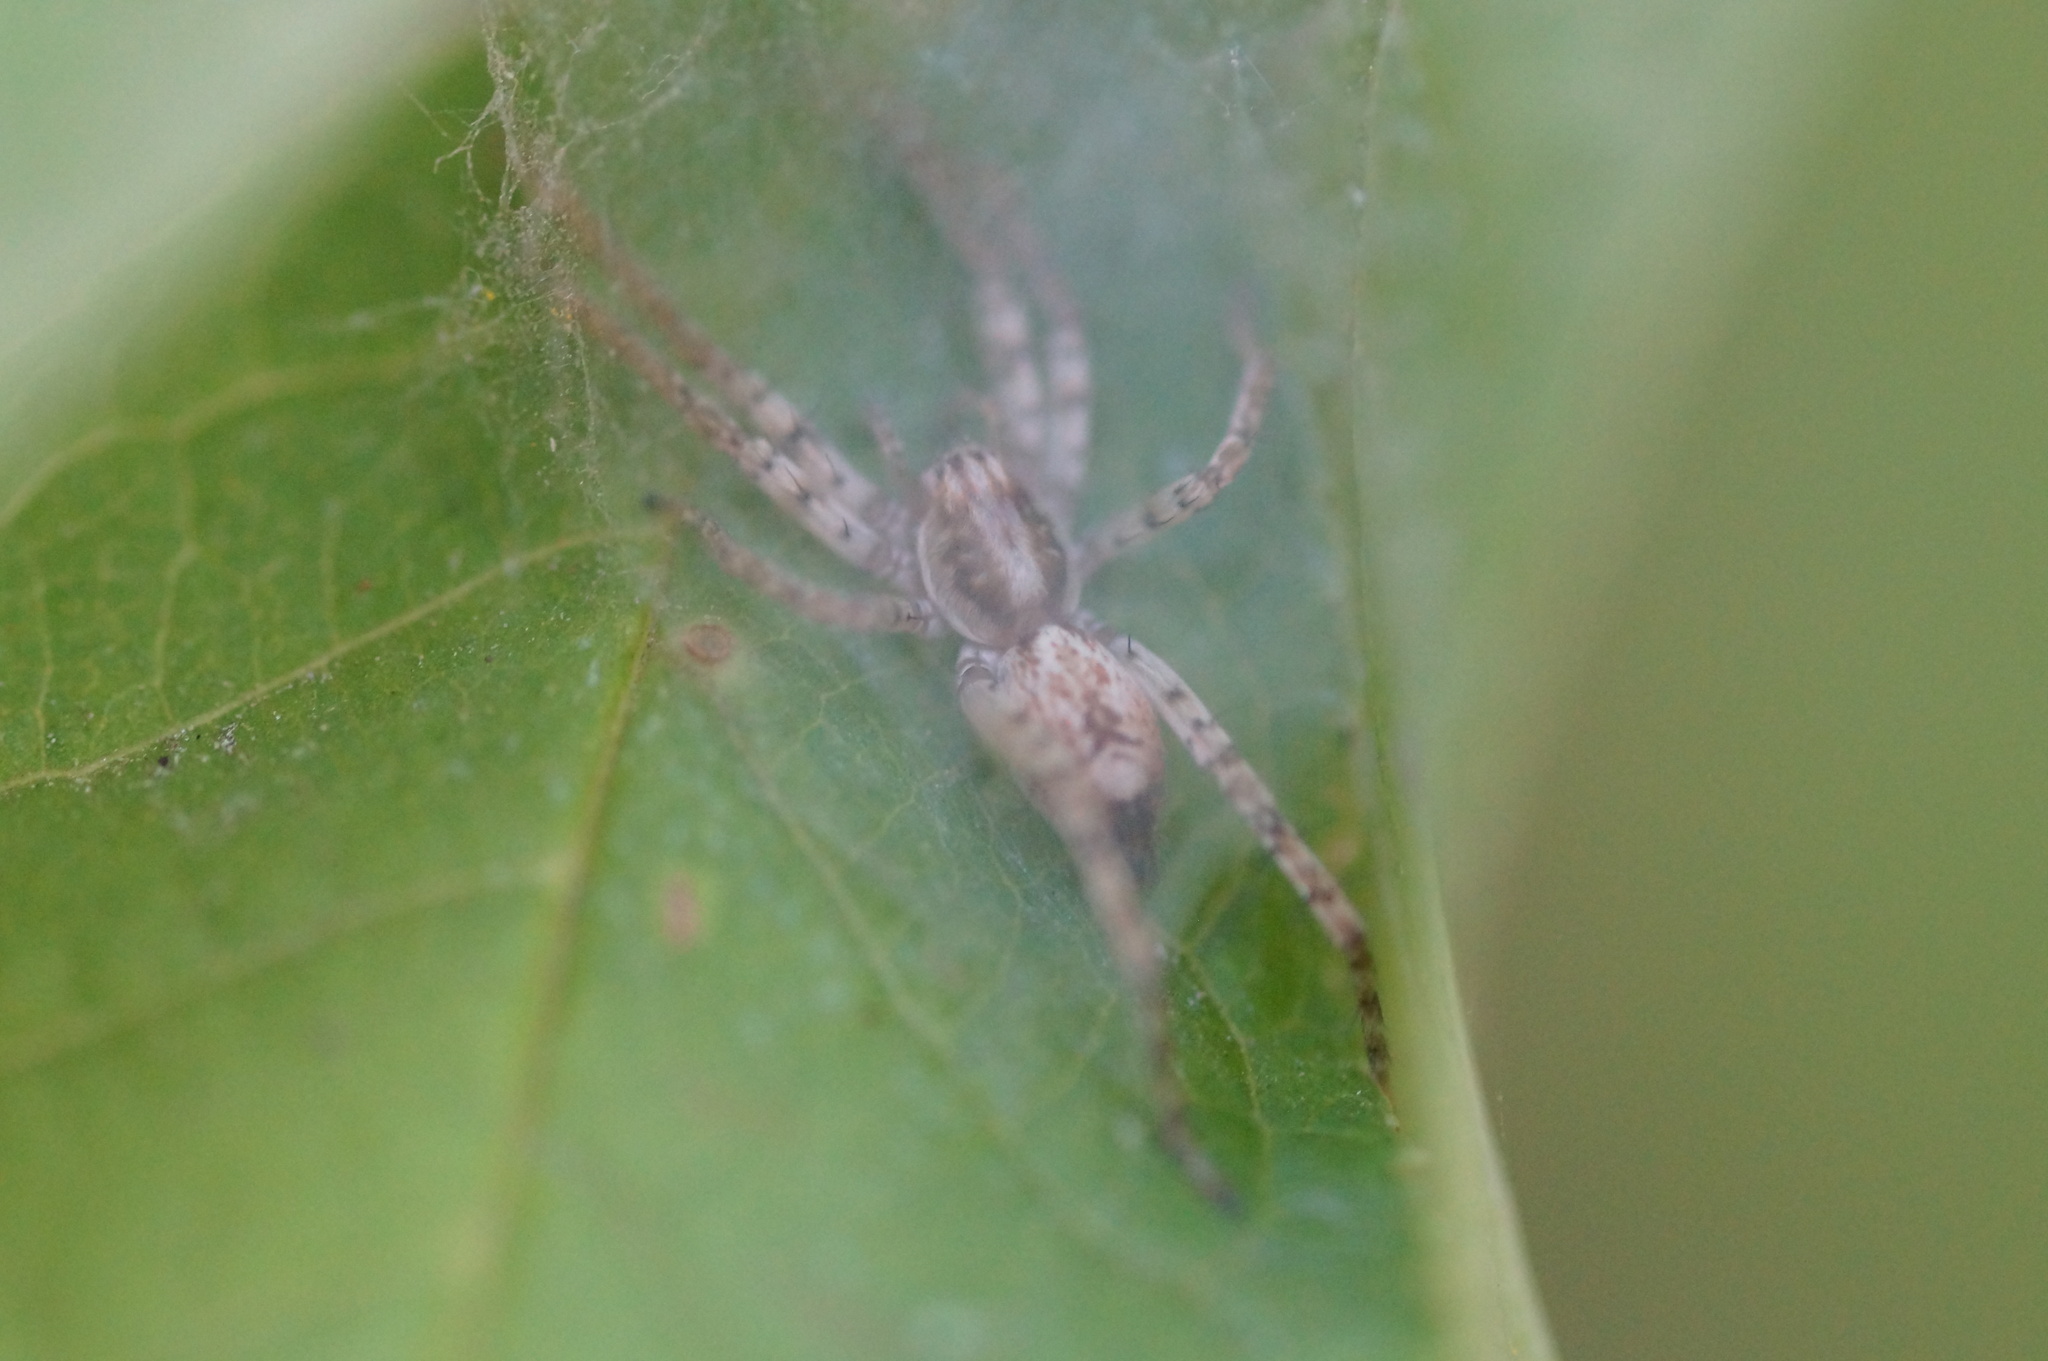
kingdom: Animalia
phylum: Arthropoda
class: Arachnida
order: Araneae
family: Anyphaenidae
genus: Anyphaena
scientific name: Anyphaena accentuata
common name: Buzzing spider
